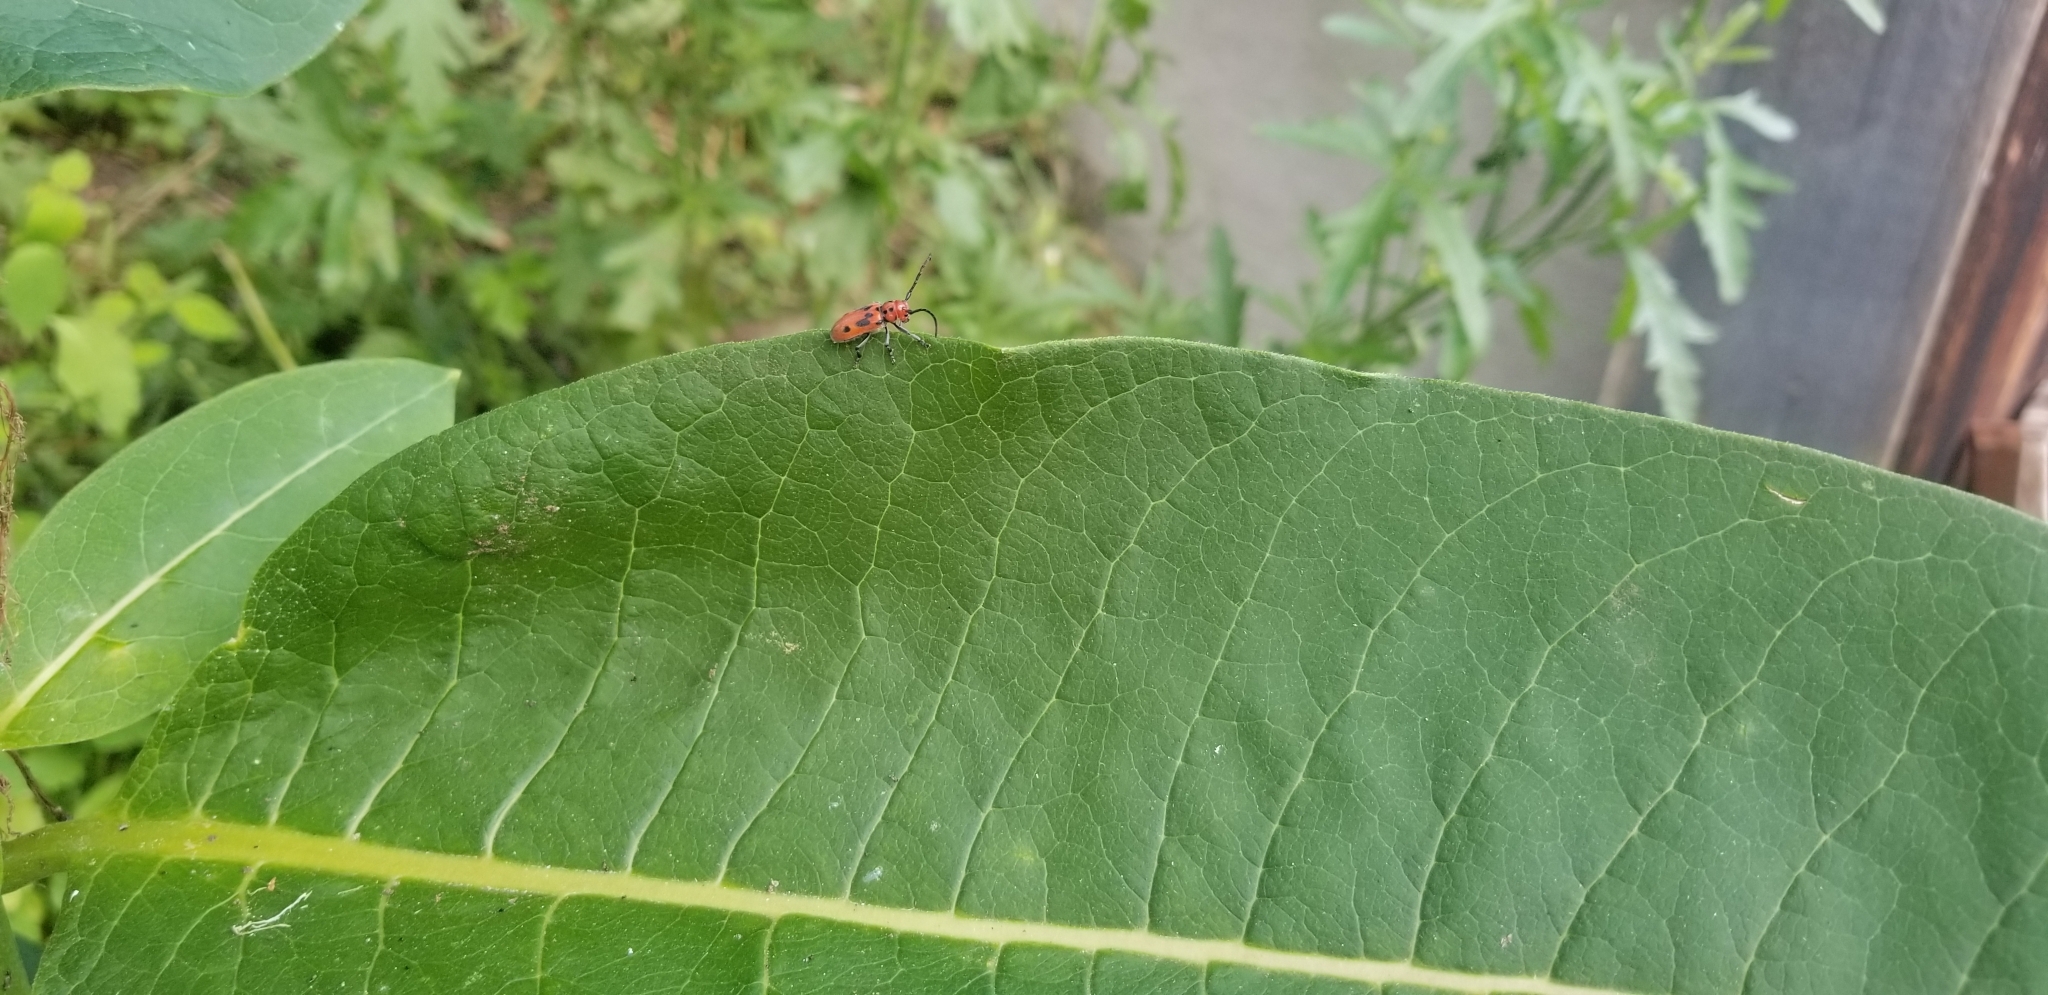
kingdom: Animalia
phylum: Arthropoda
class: Insecta
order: Coleoptera
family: Cerambycidae
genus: Tetraopes
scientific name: Tetraopes tetrophthalmus
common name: Red milkweed beetle
